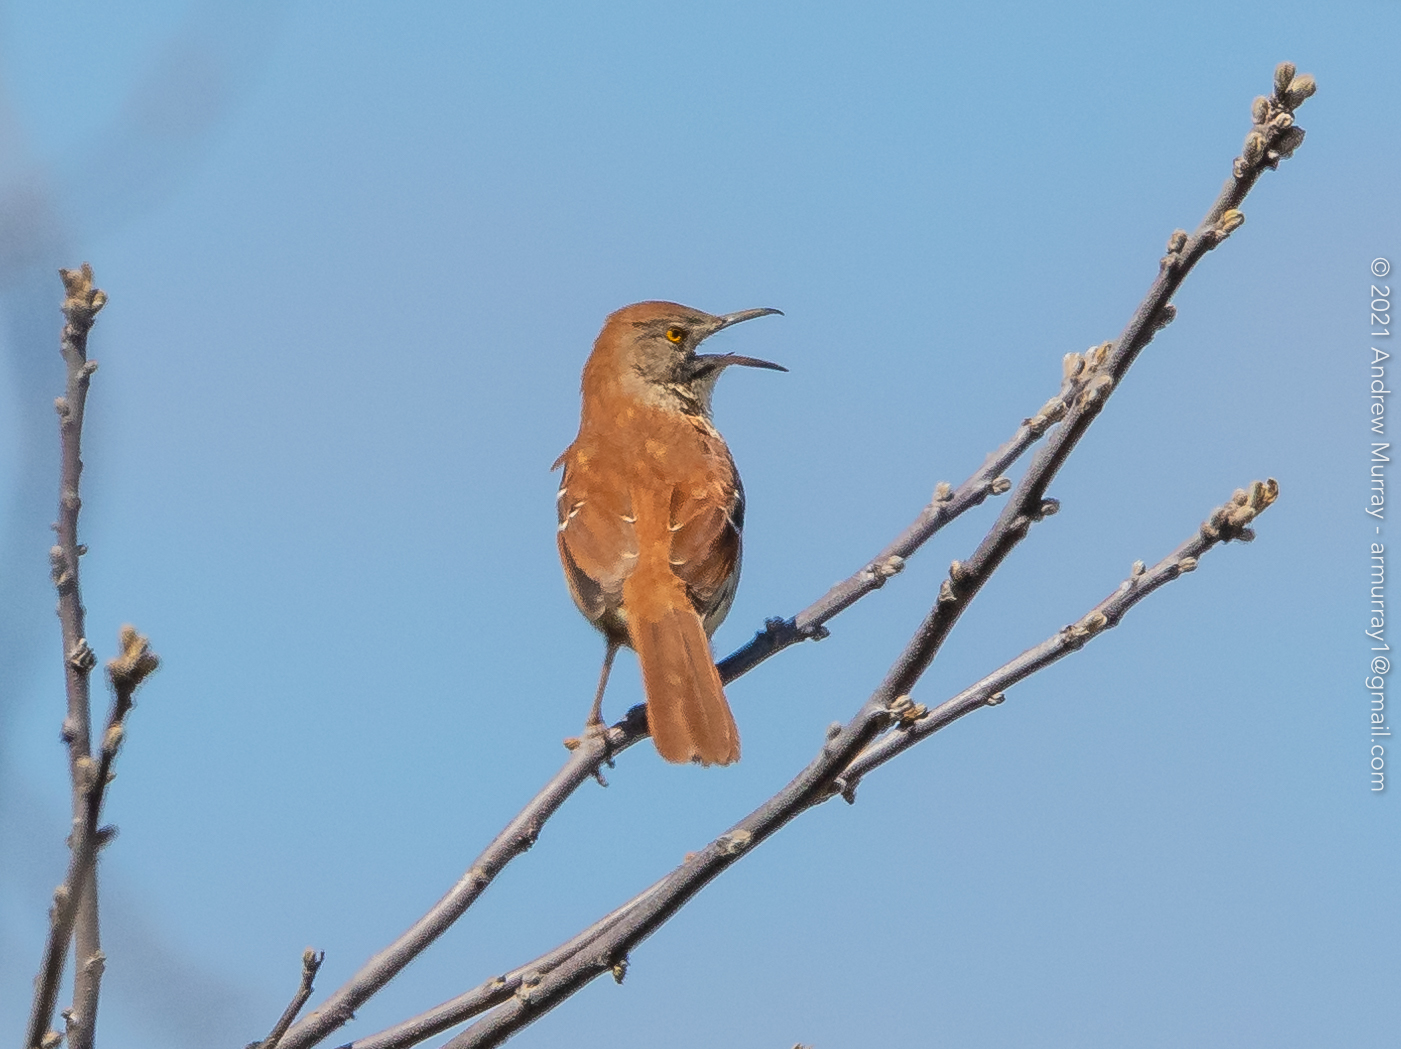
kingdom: Animalia
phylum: Chordata
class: Aves
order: Passeriformes
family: Mimidae
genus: Toxostoma
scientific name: Toxostoma rufum
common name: Brown thrasher
